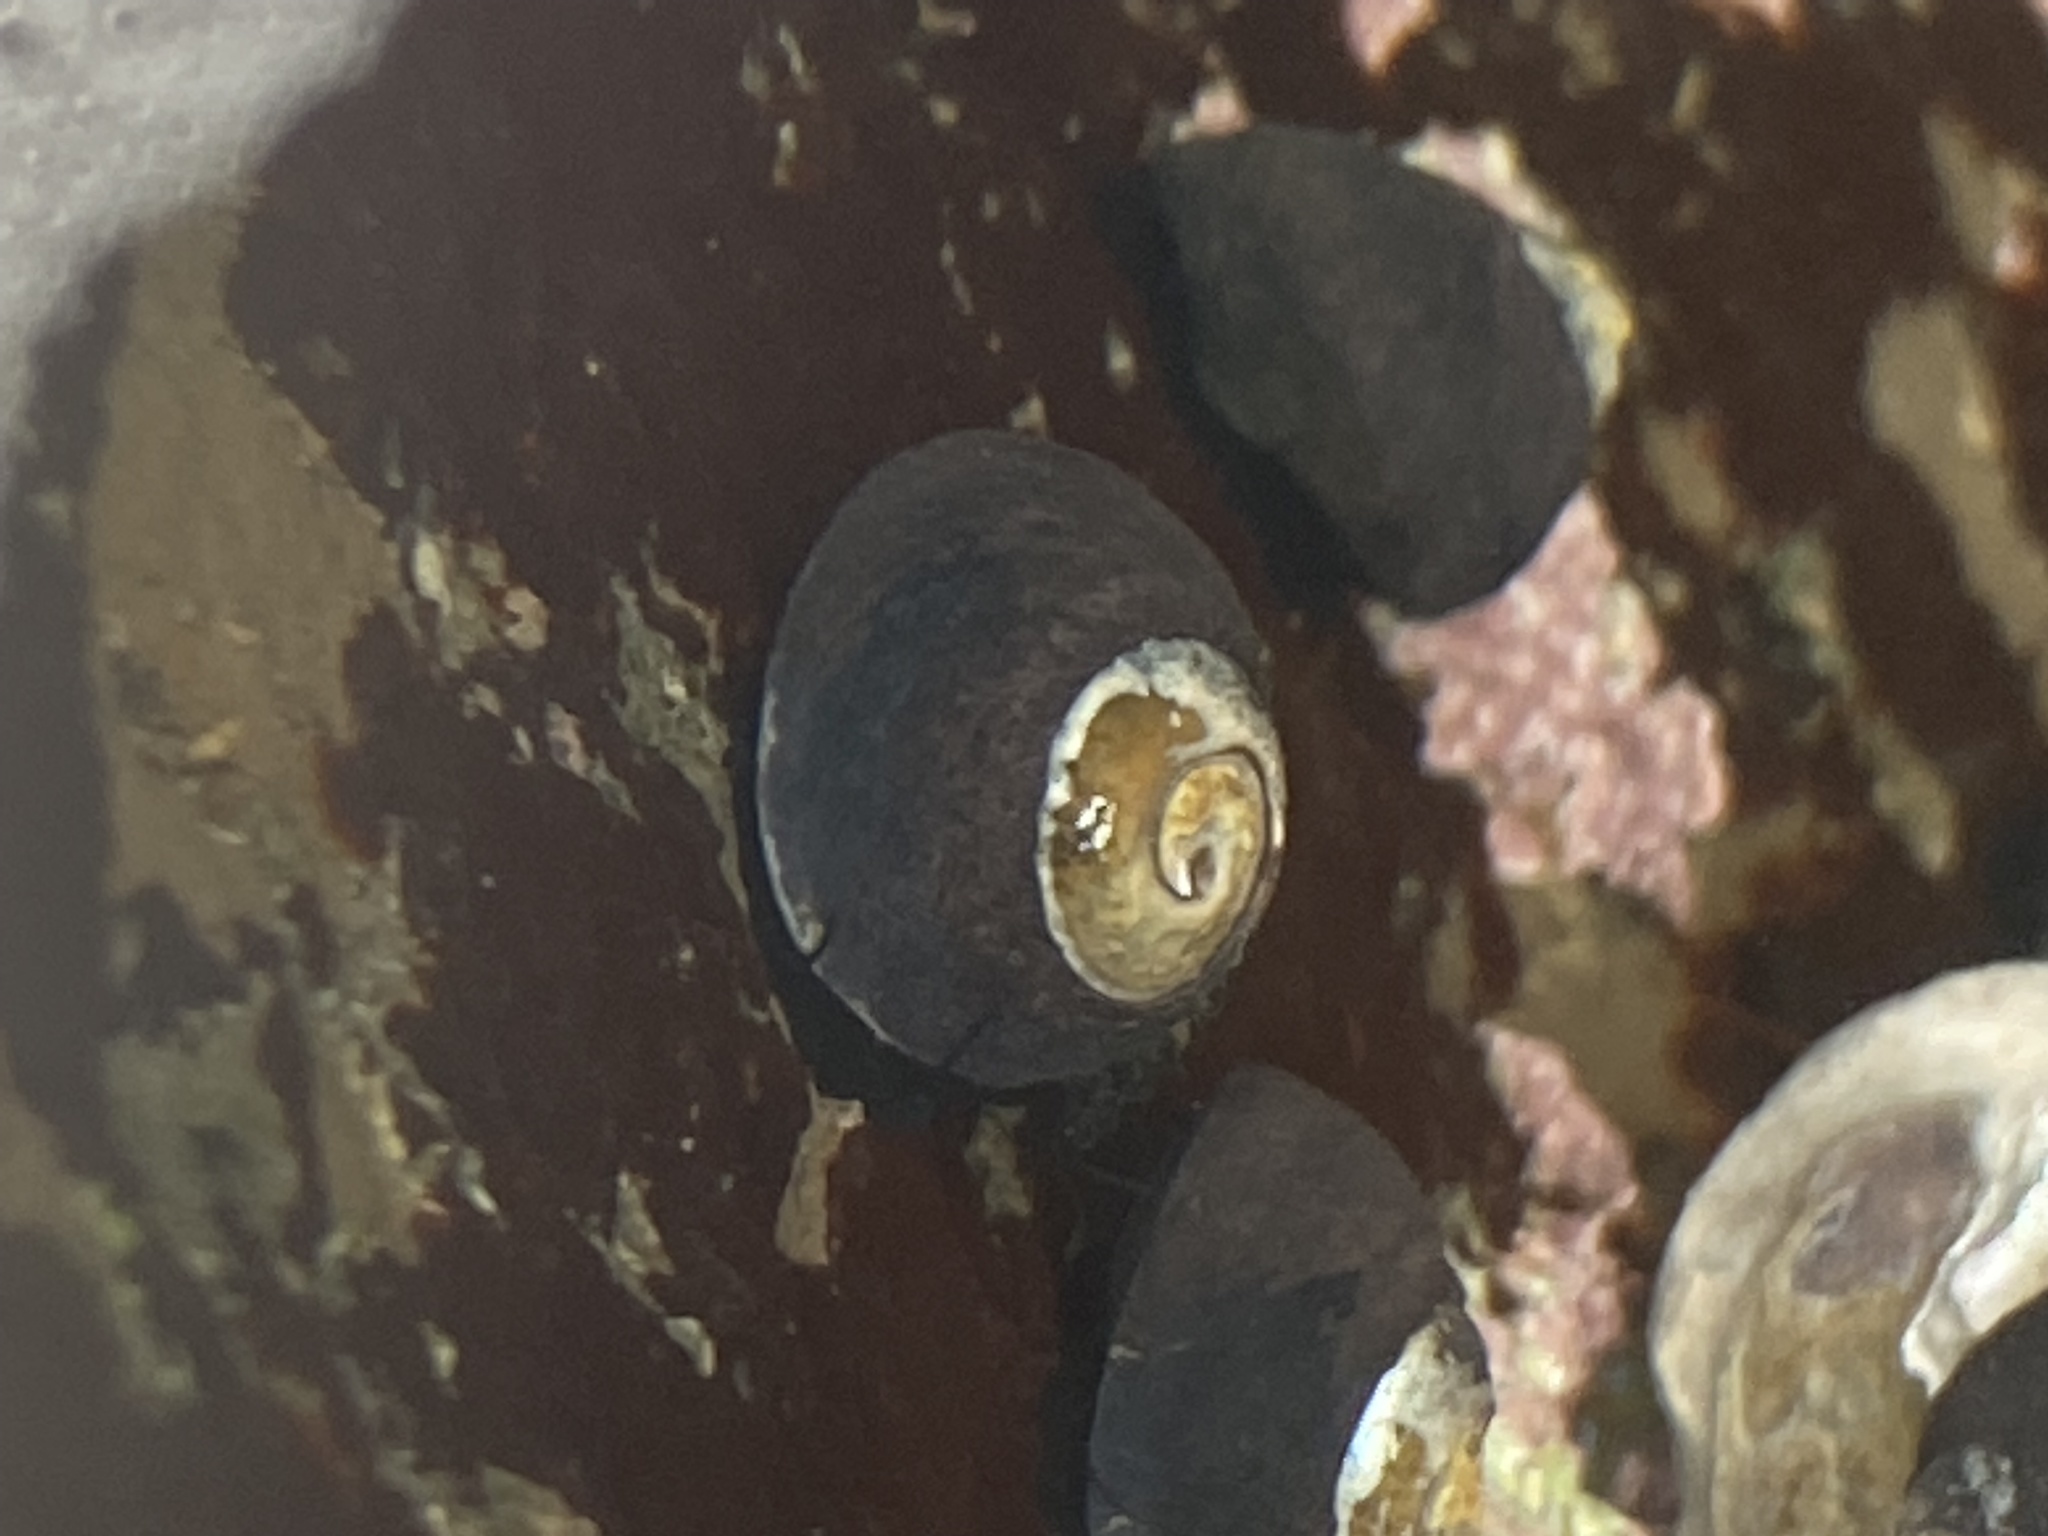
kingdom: Animalia
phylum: Mollusca
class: Gastropoda
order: Trochida
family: Tegulidae
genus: Tegula
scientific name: Tegula funebralis
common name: Black tegula
